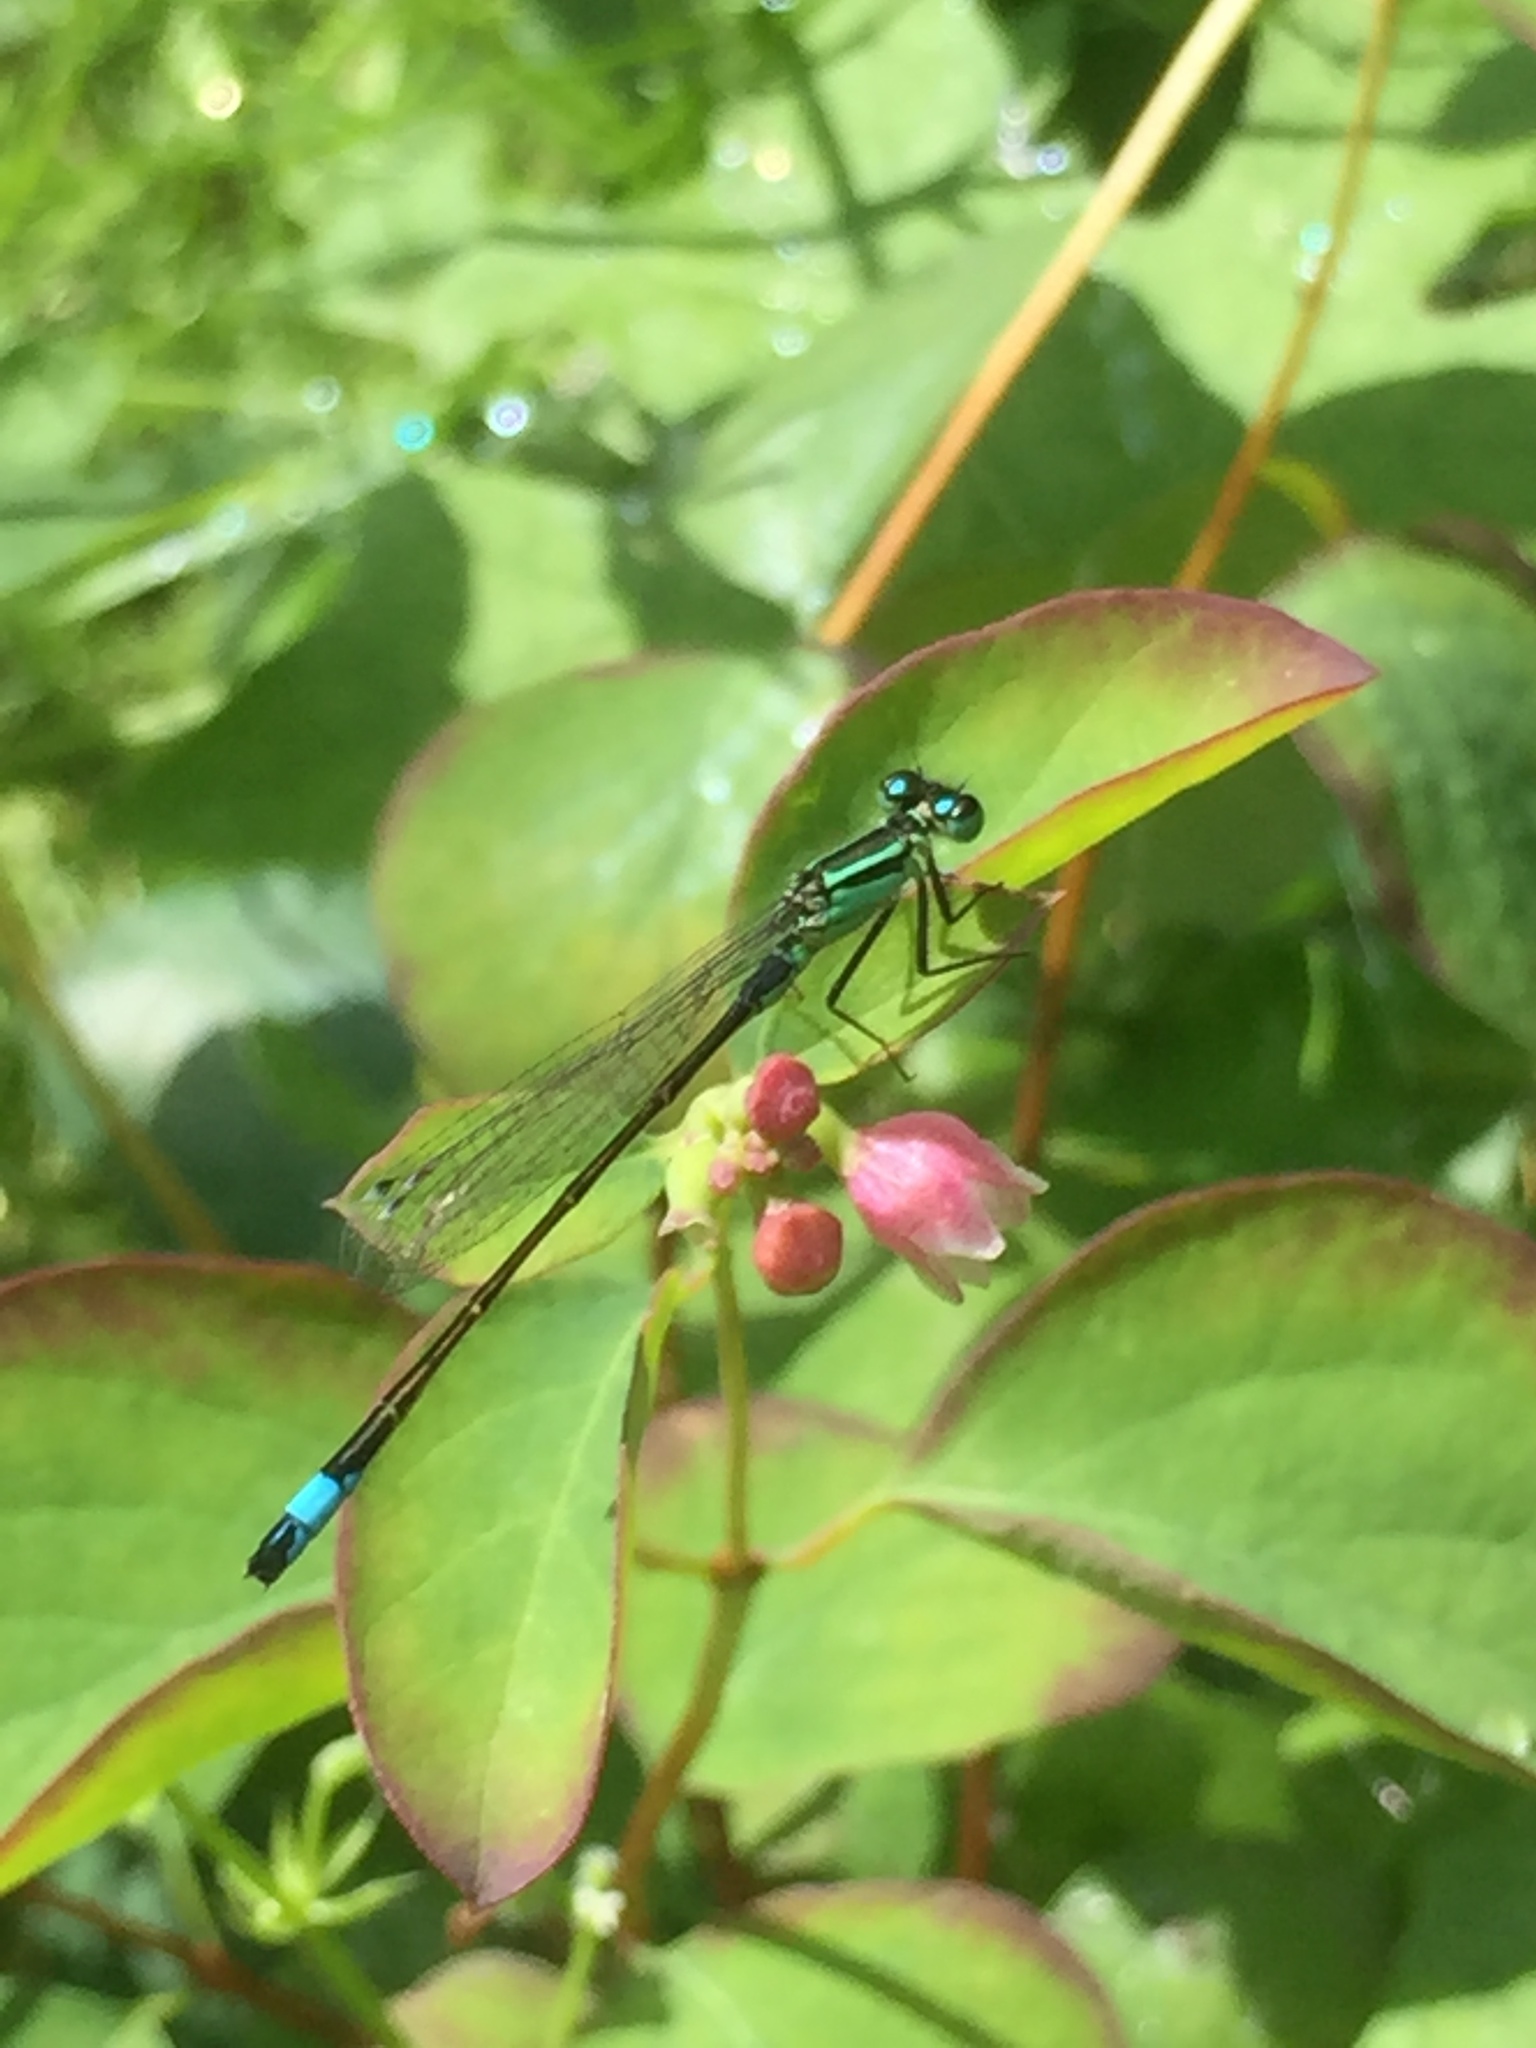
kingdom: Animalia
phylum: Arthropoda
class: Insecta
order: Odonata
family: Coenagrionidae
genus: Ischnura
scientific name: Ischnura elegans
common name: Blue-tailed damselfly
